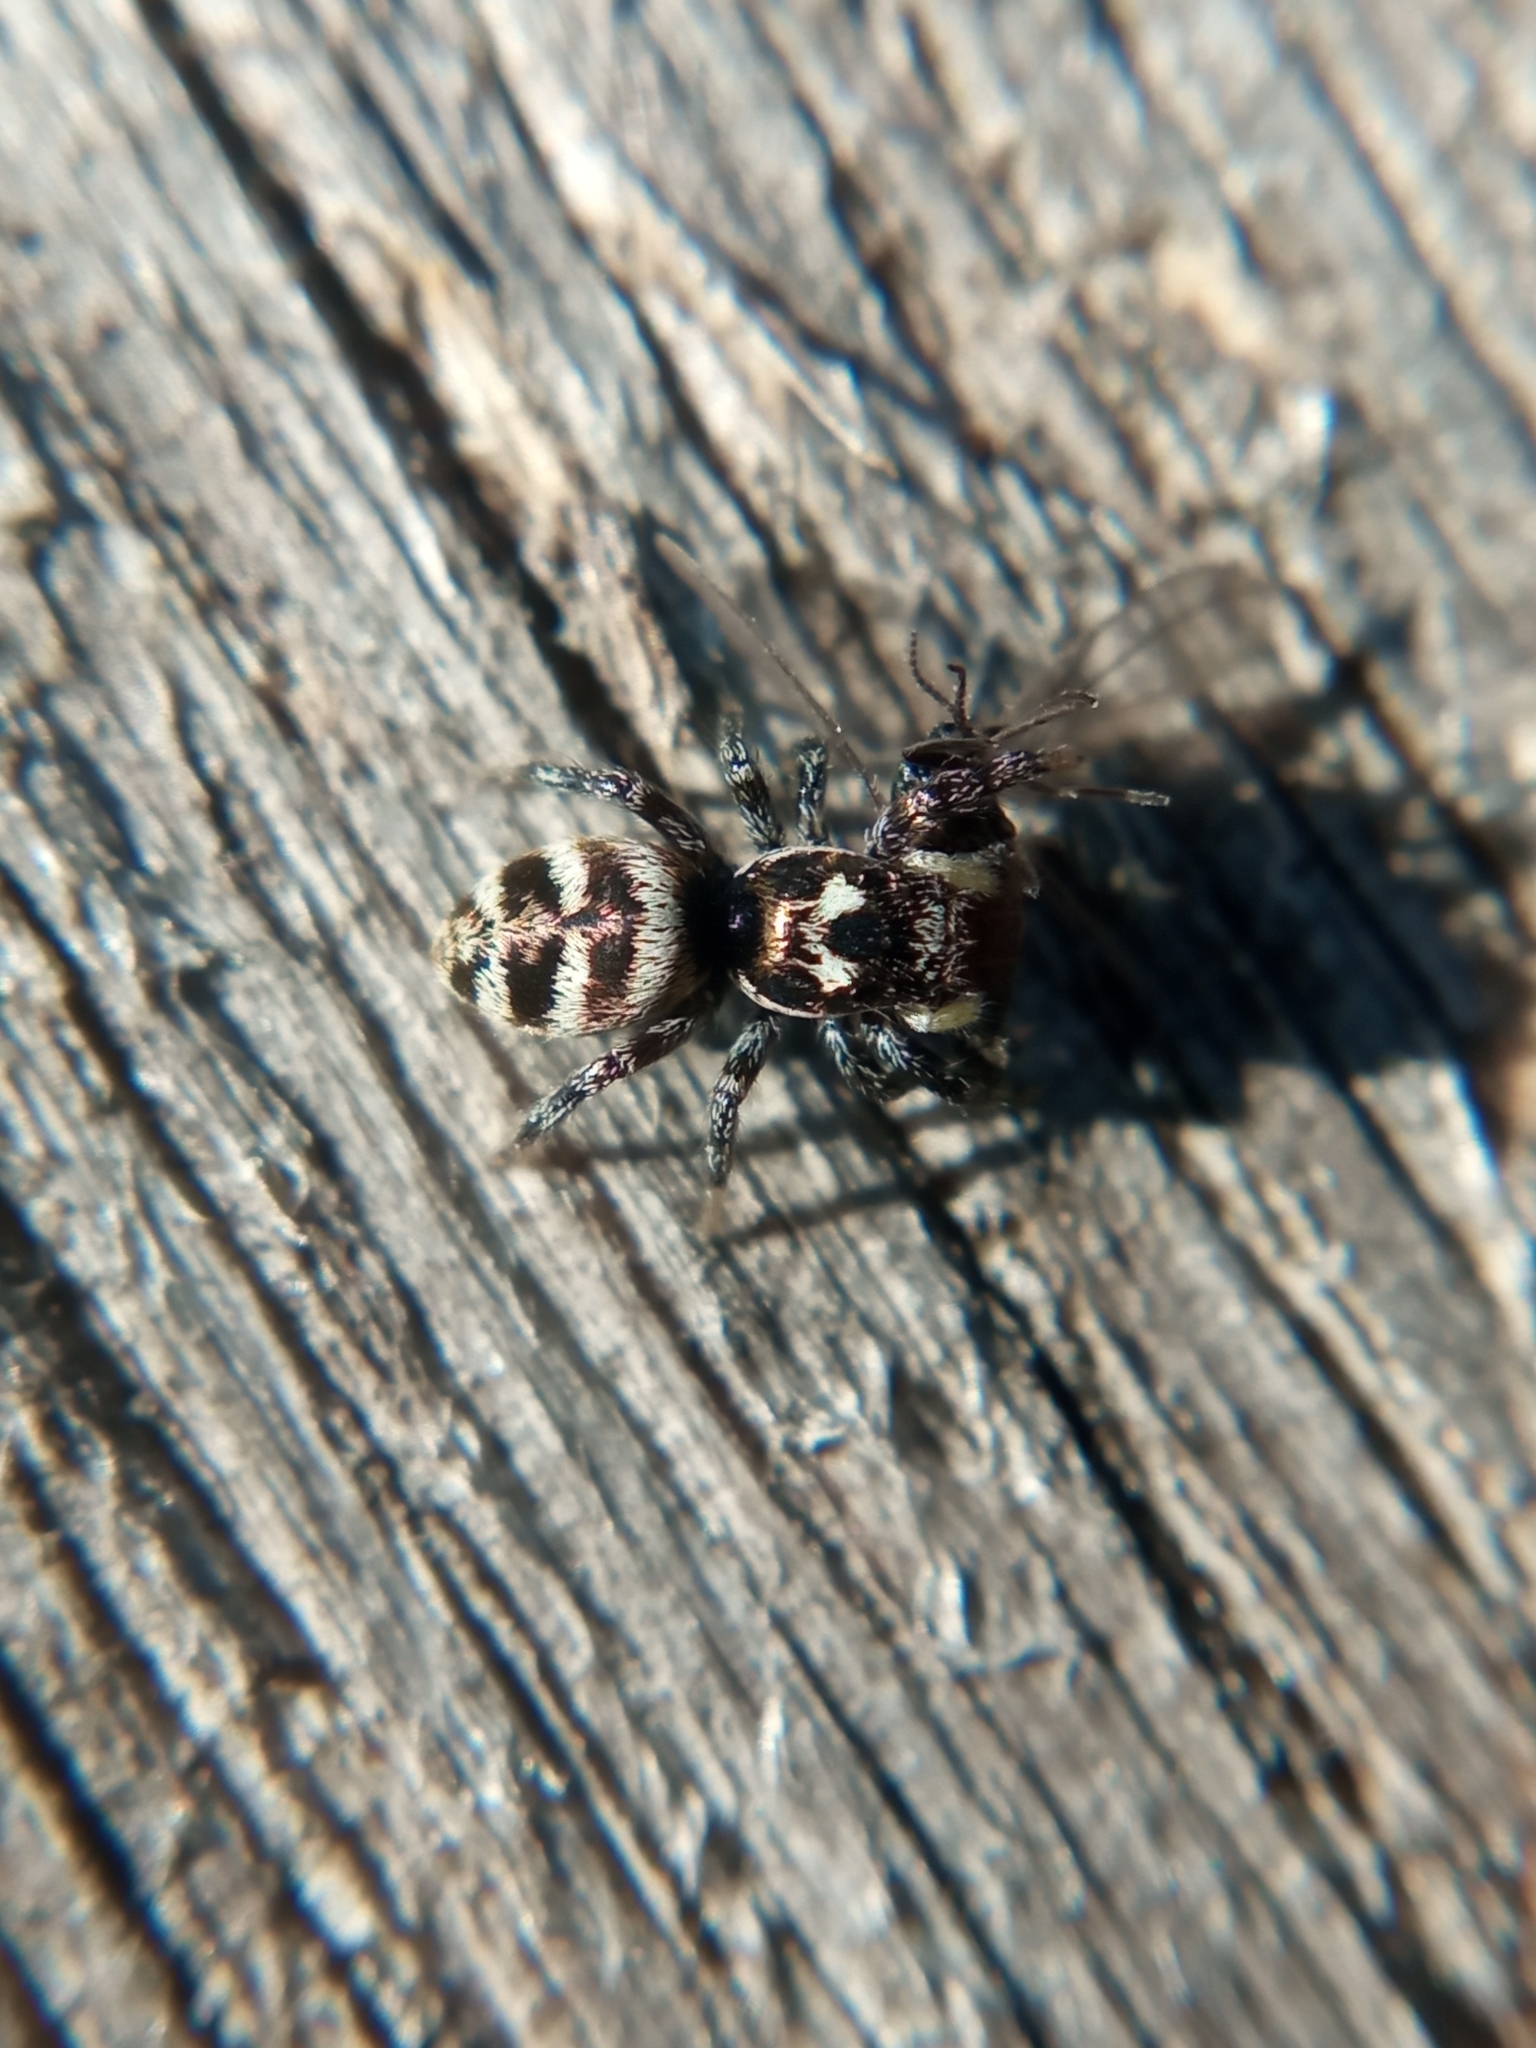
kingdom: Animalia
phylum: Arthropoda
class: Arachnida
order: Araneae
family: Salticidae
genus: Salticus
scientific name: Salticus scenicus
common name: Zebra jumper
